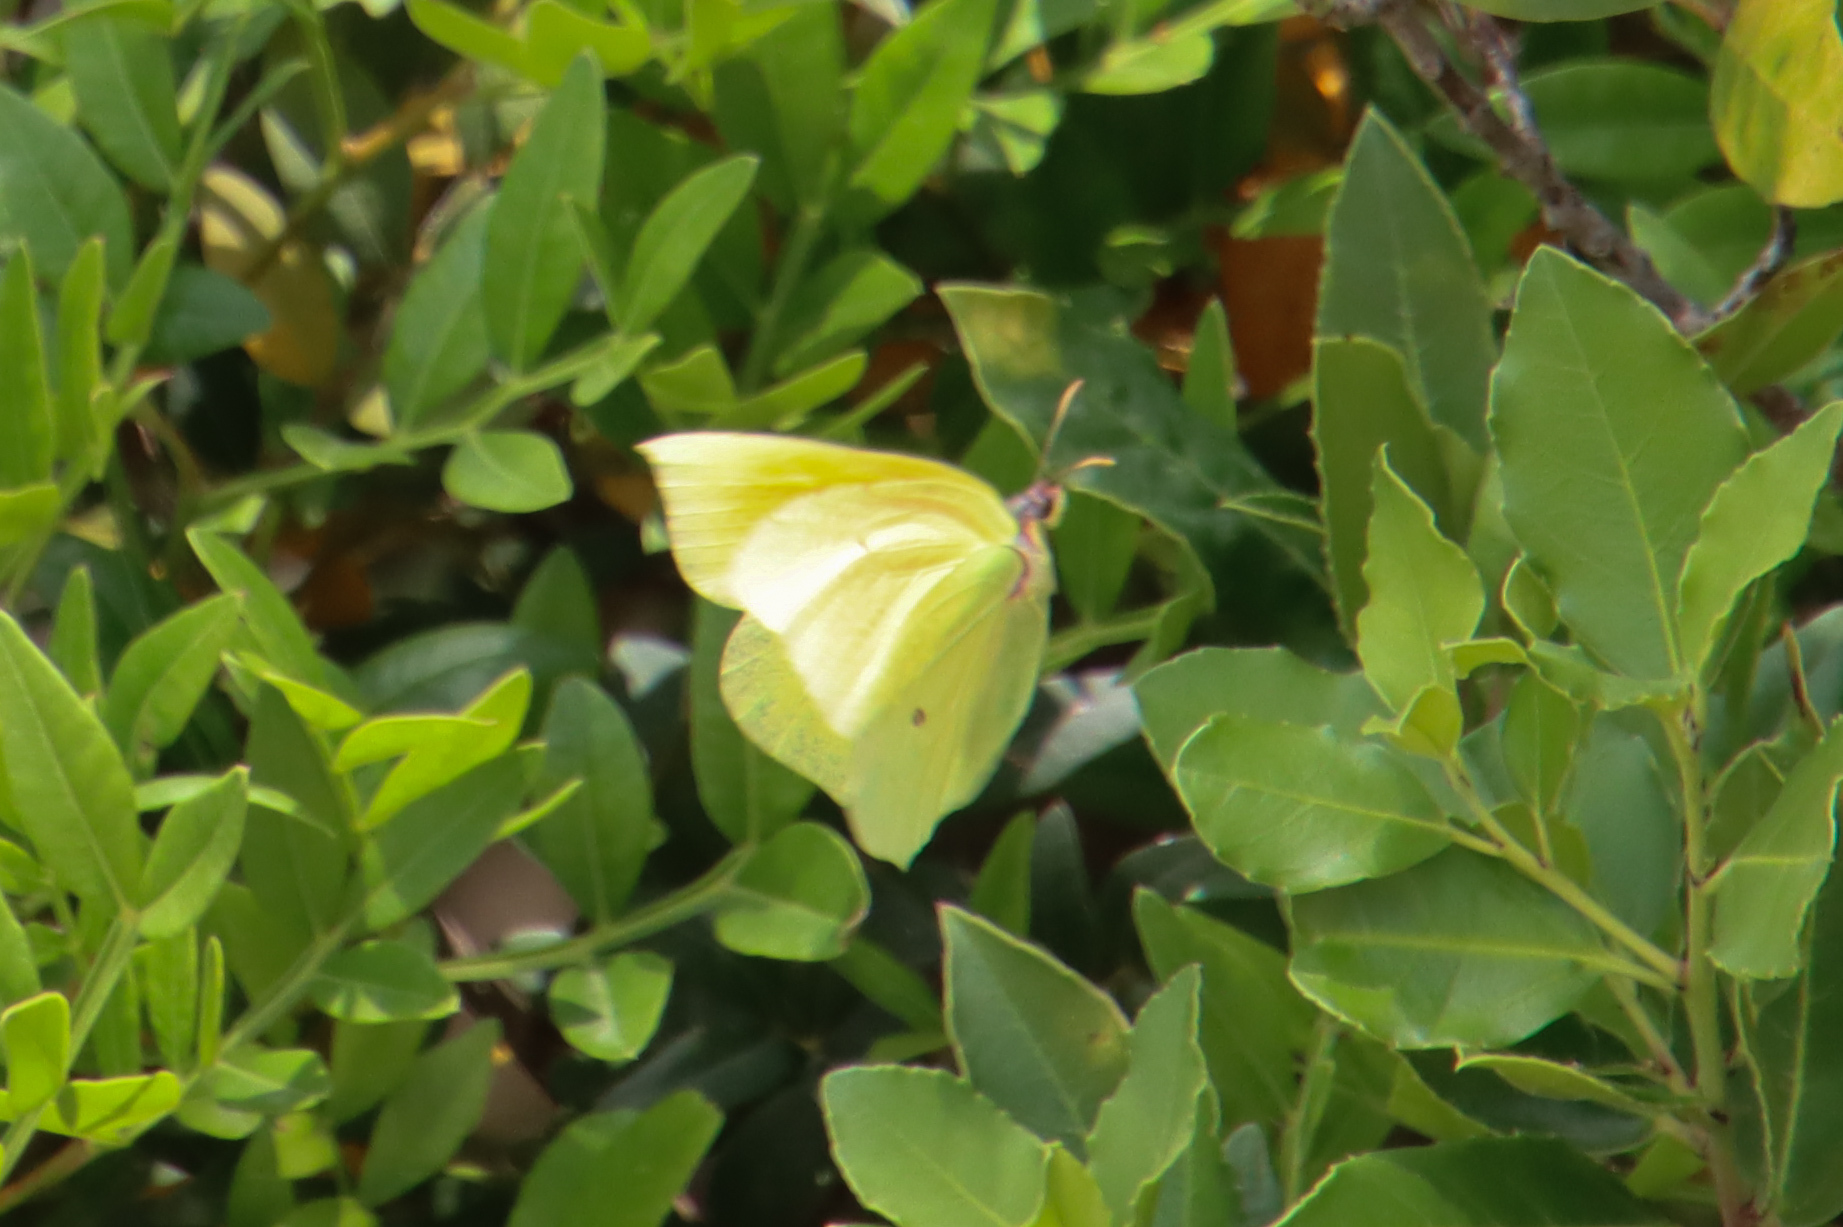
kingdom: Animalia
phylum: Arthropoda
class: Insecta
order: Lepidoptera
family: Pieridae
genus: Gonepteryx
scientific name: Gonepteryx cleopatra
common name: Cleopatra
